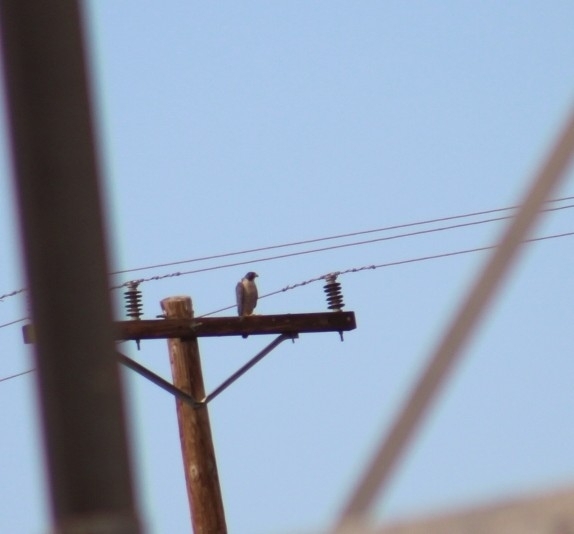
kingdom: Animalia
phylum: Chordata
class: Aves
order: Falconiformes
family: Falconidae
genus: Falco
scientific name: Falco peregrinus
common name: Peregrine falcon
